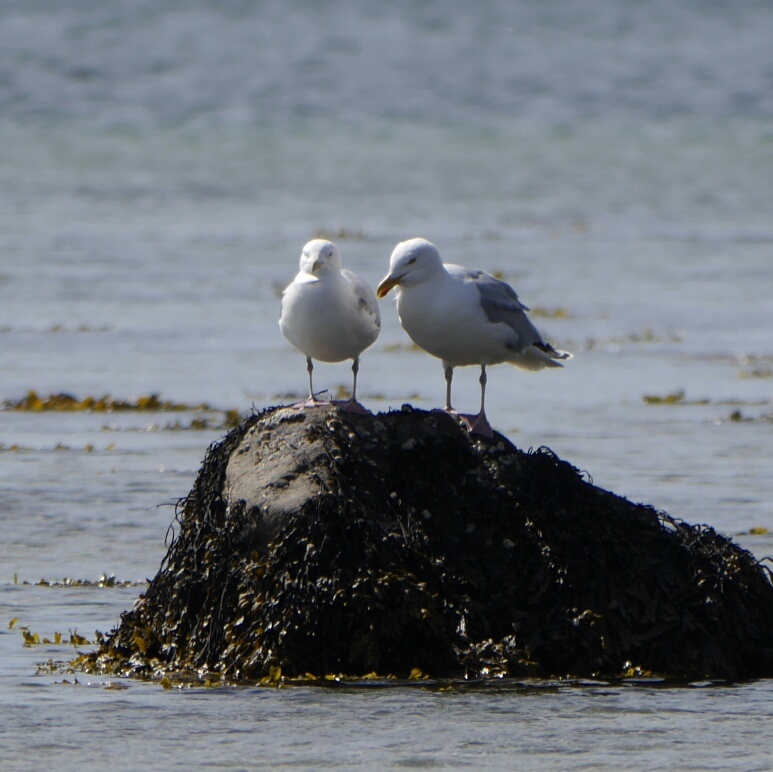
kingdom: Animalia
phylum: Chordata
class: Aves
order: Charadriiformes
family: Laridae
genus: Larus
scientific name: Larus argentatus
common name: Herring gull
